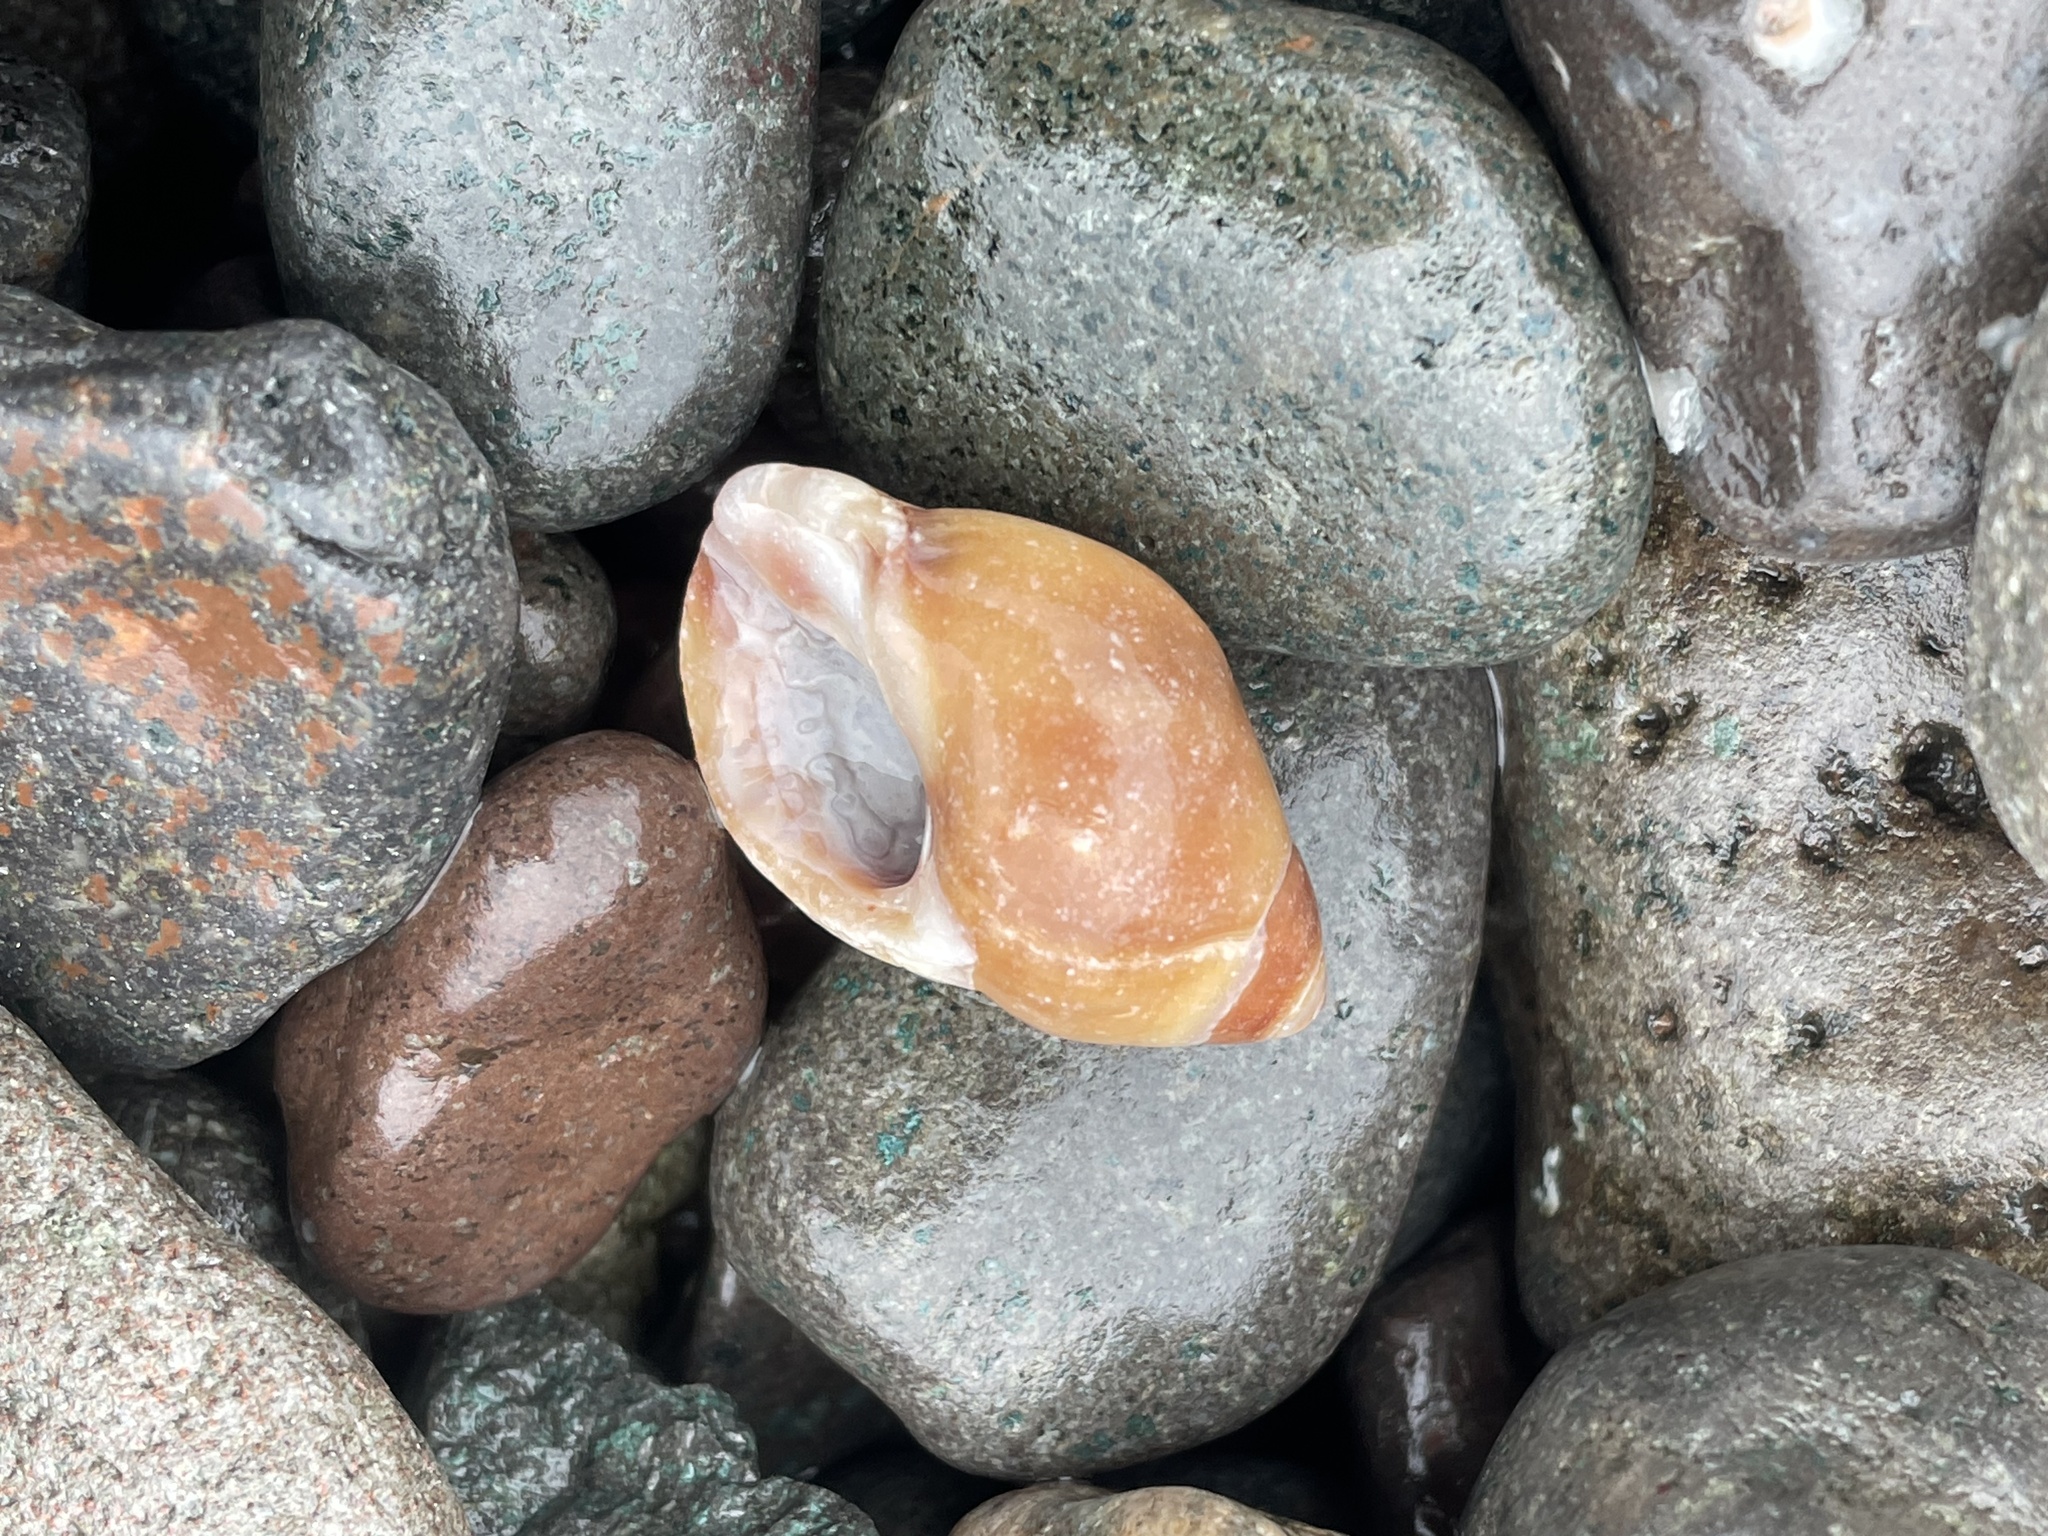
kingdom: Animalia
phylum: Mollusca
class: Gastropoda
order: Neogastropoda
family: Muricidae
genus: Nucella
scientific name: Nucella lapillus
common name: Dog whelk
